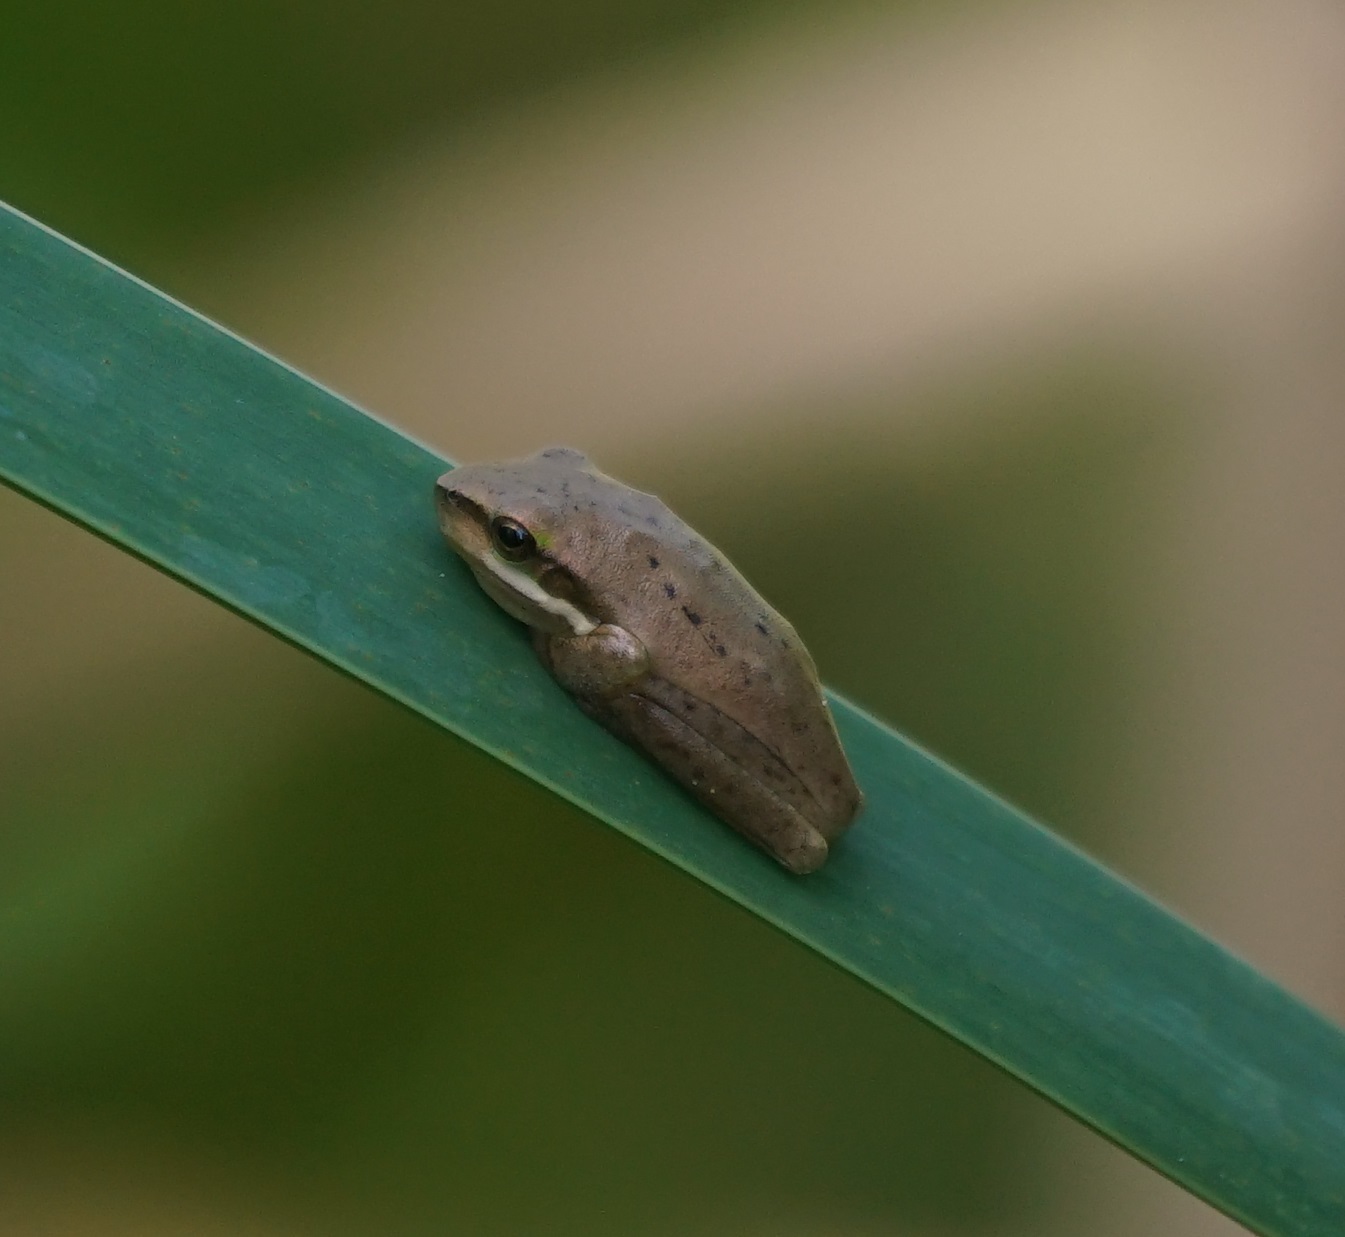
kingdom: Animalia
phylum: Chordata
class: Amphibia
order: Anura
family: Pelodryadidae
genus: Litoria
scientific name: Litoria fallax
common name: Eastern dwarf treefrog
